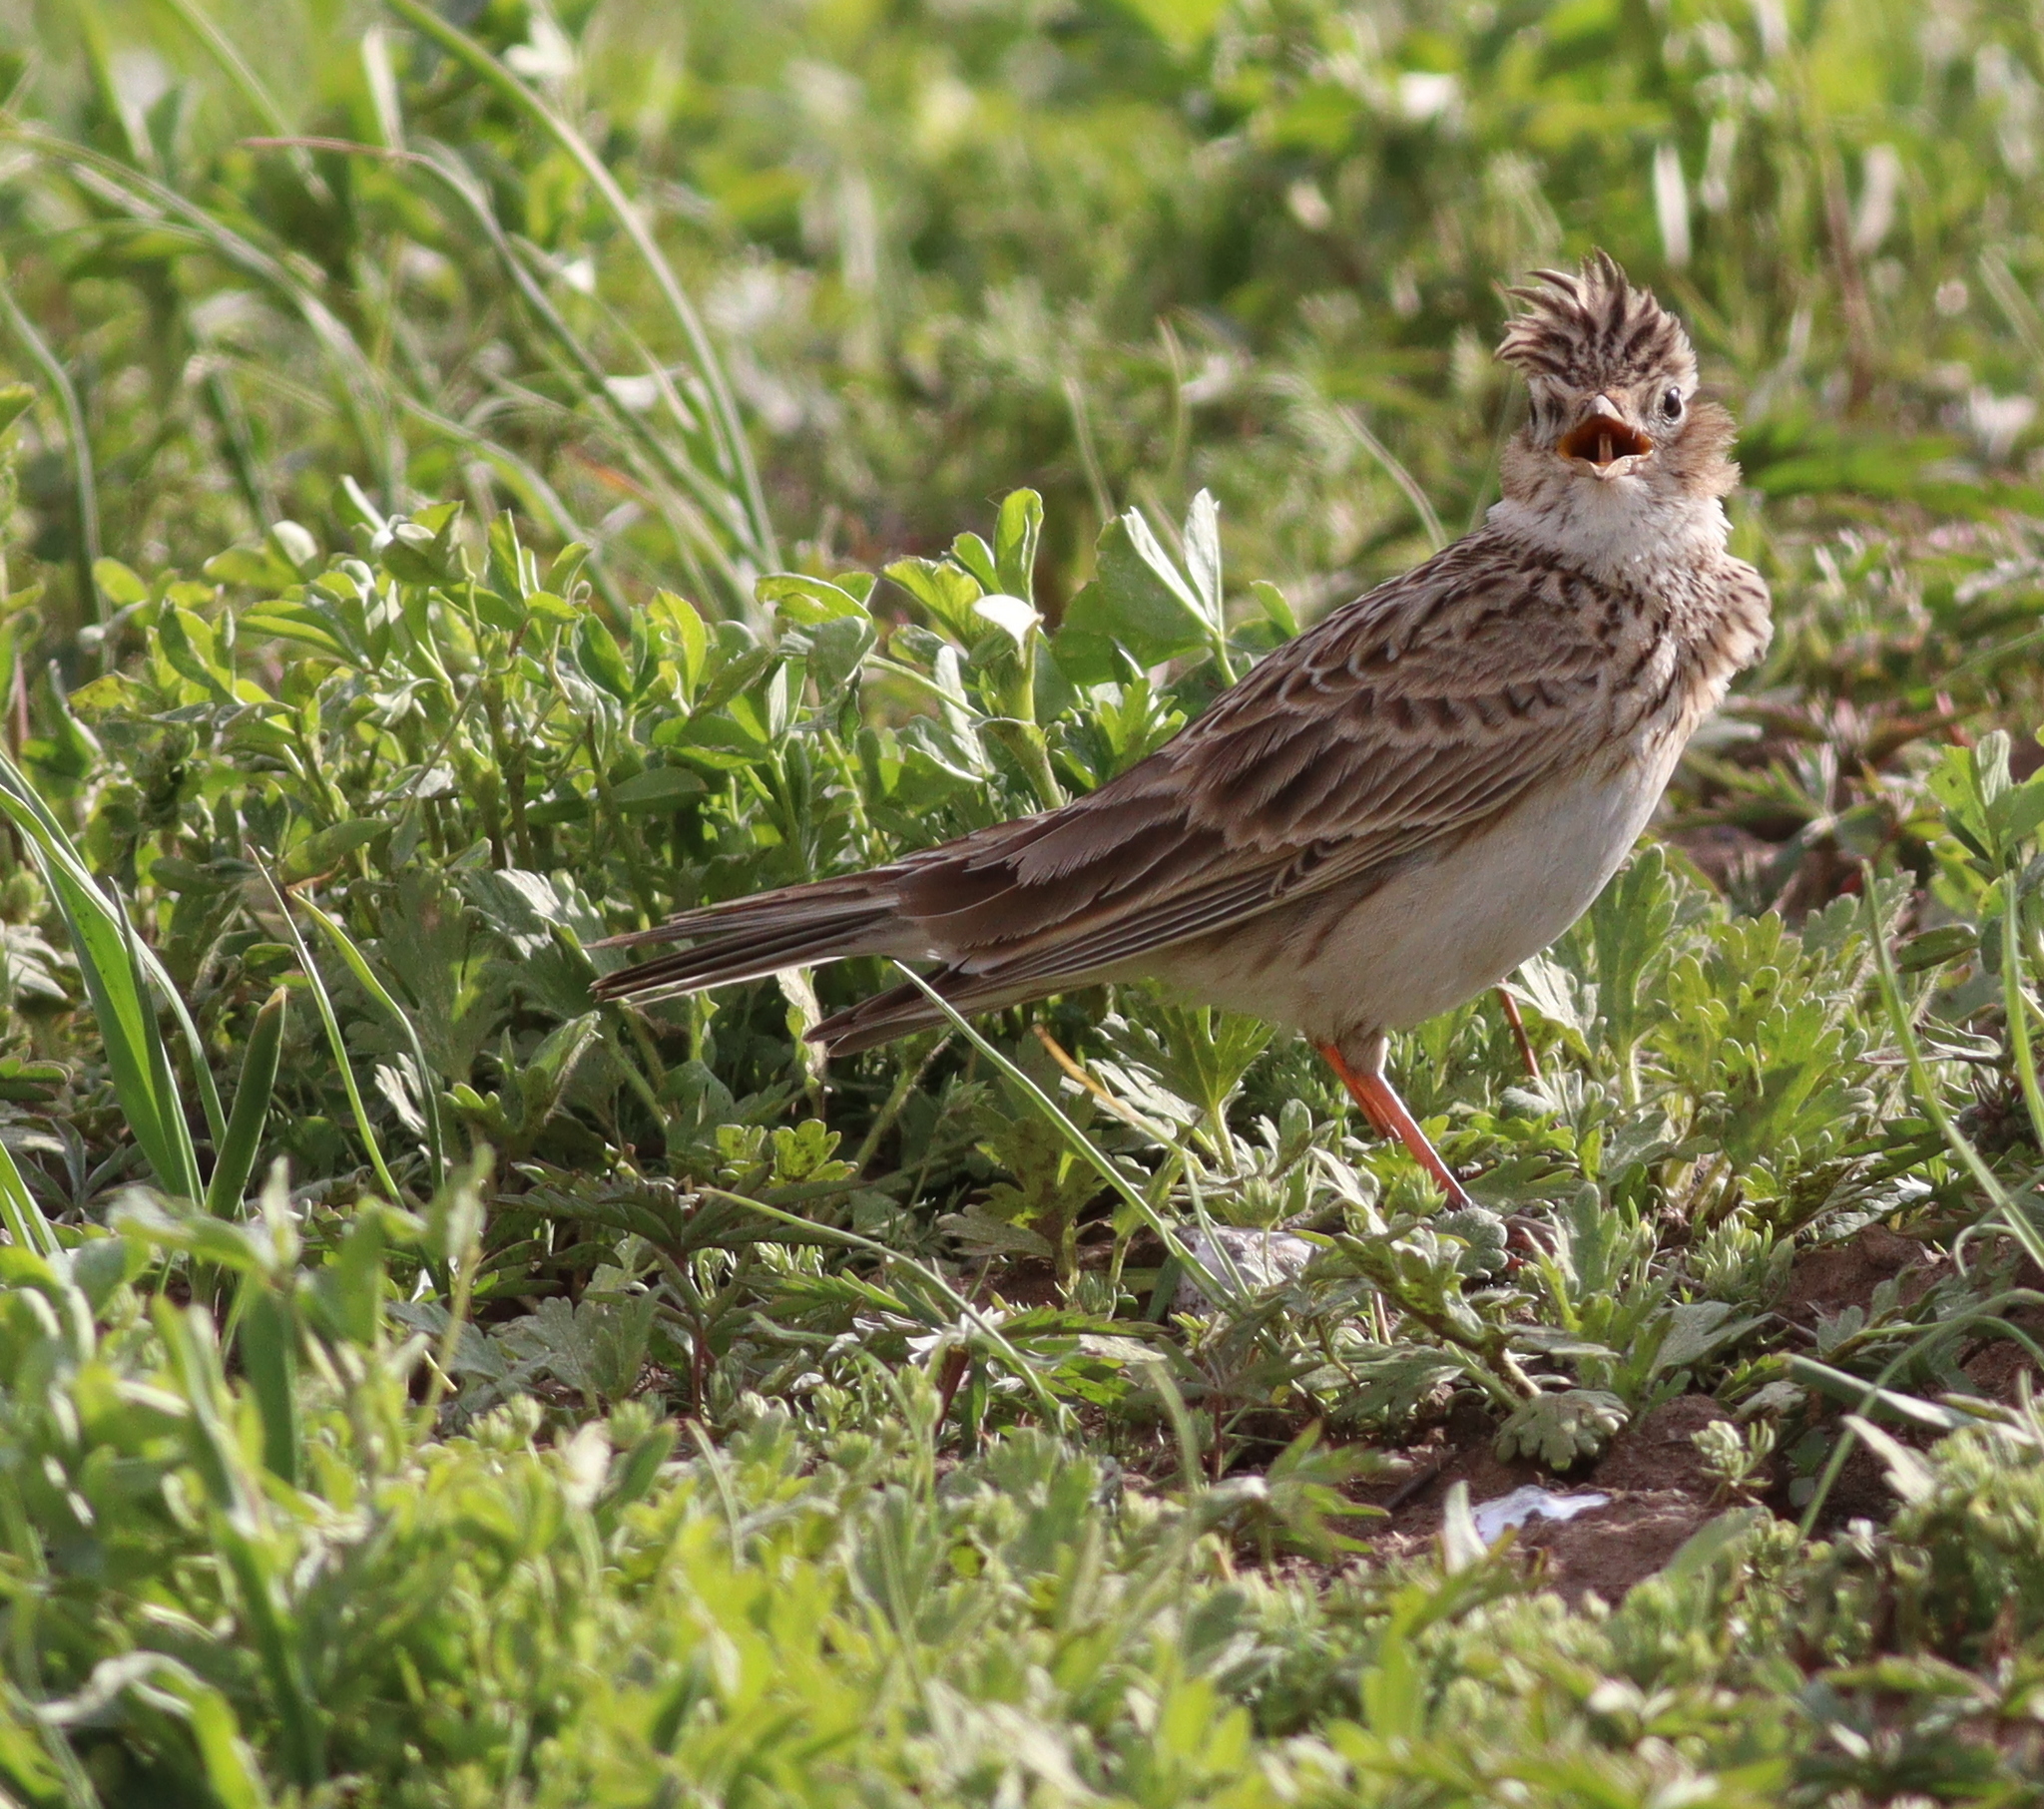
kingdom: Animalia
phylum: Chordata
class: Aves
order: Passeriformes
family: Alaudidae
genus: Alauda
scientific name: Alauda arvensis
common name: Eurasian skylark
